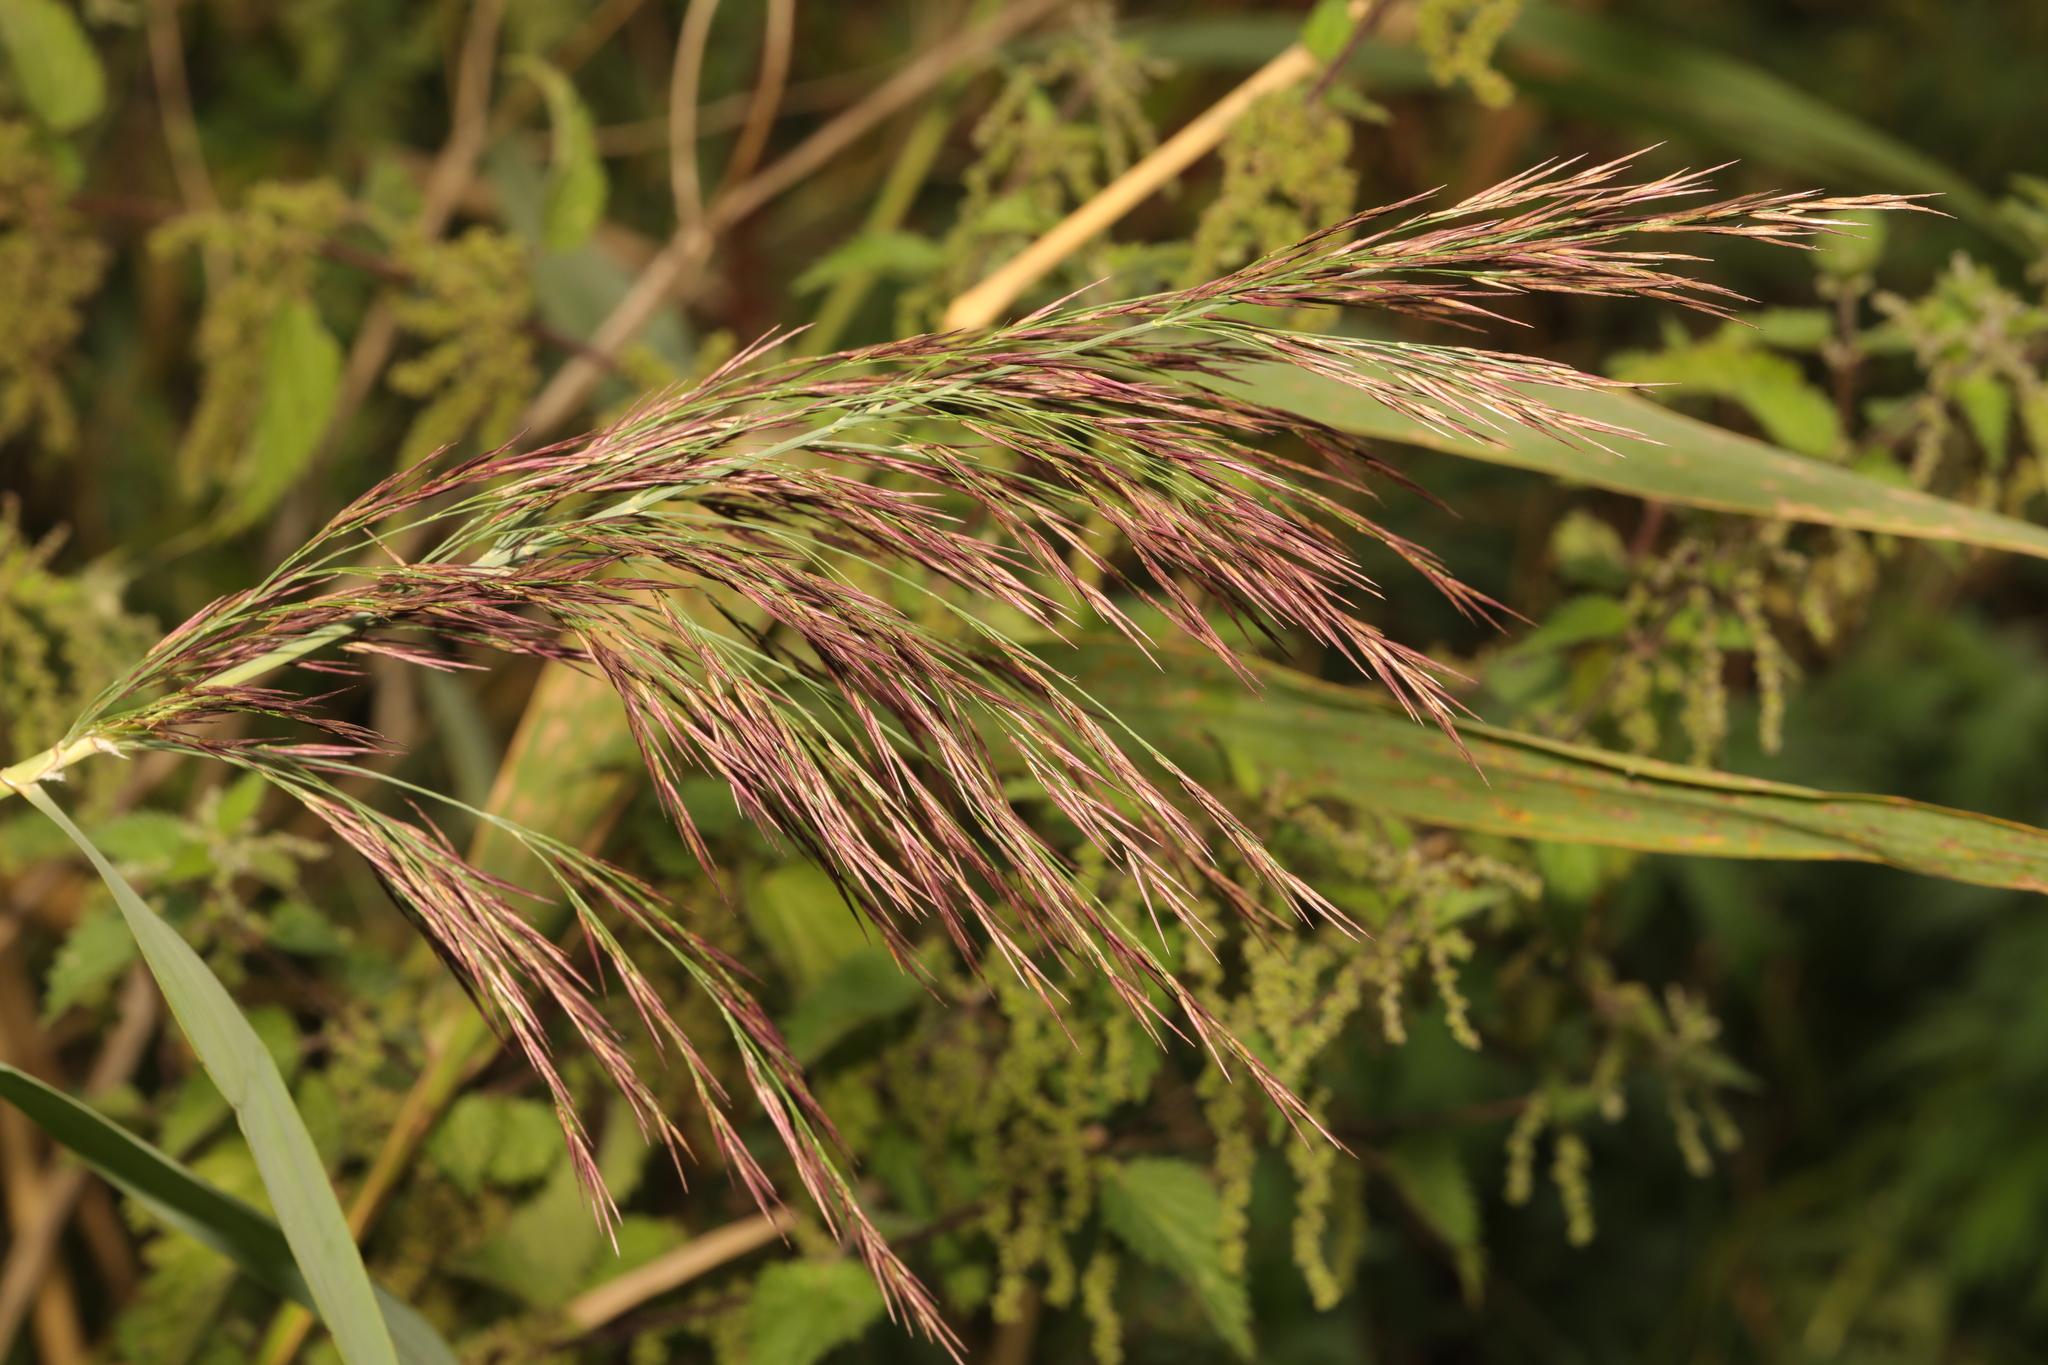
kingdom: Plantae
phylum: Tracheophyta
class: Liliopsida
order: Poales
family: Poaceae
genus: Phragmites
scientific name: Phragmites australis
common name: Common reed
